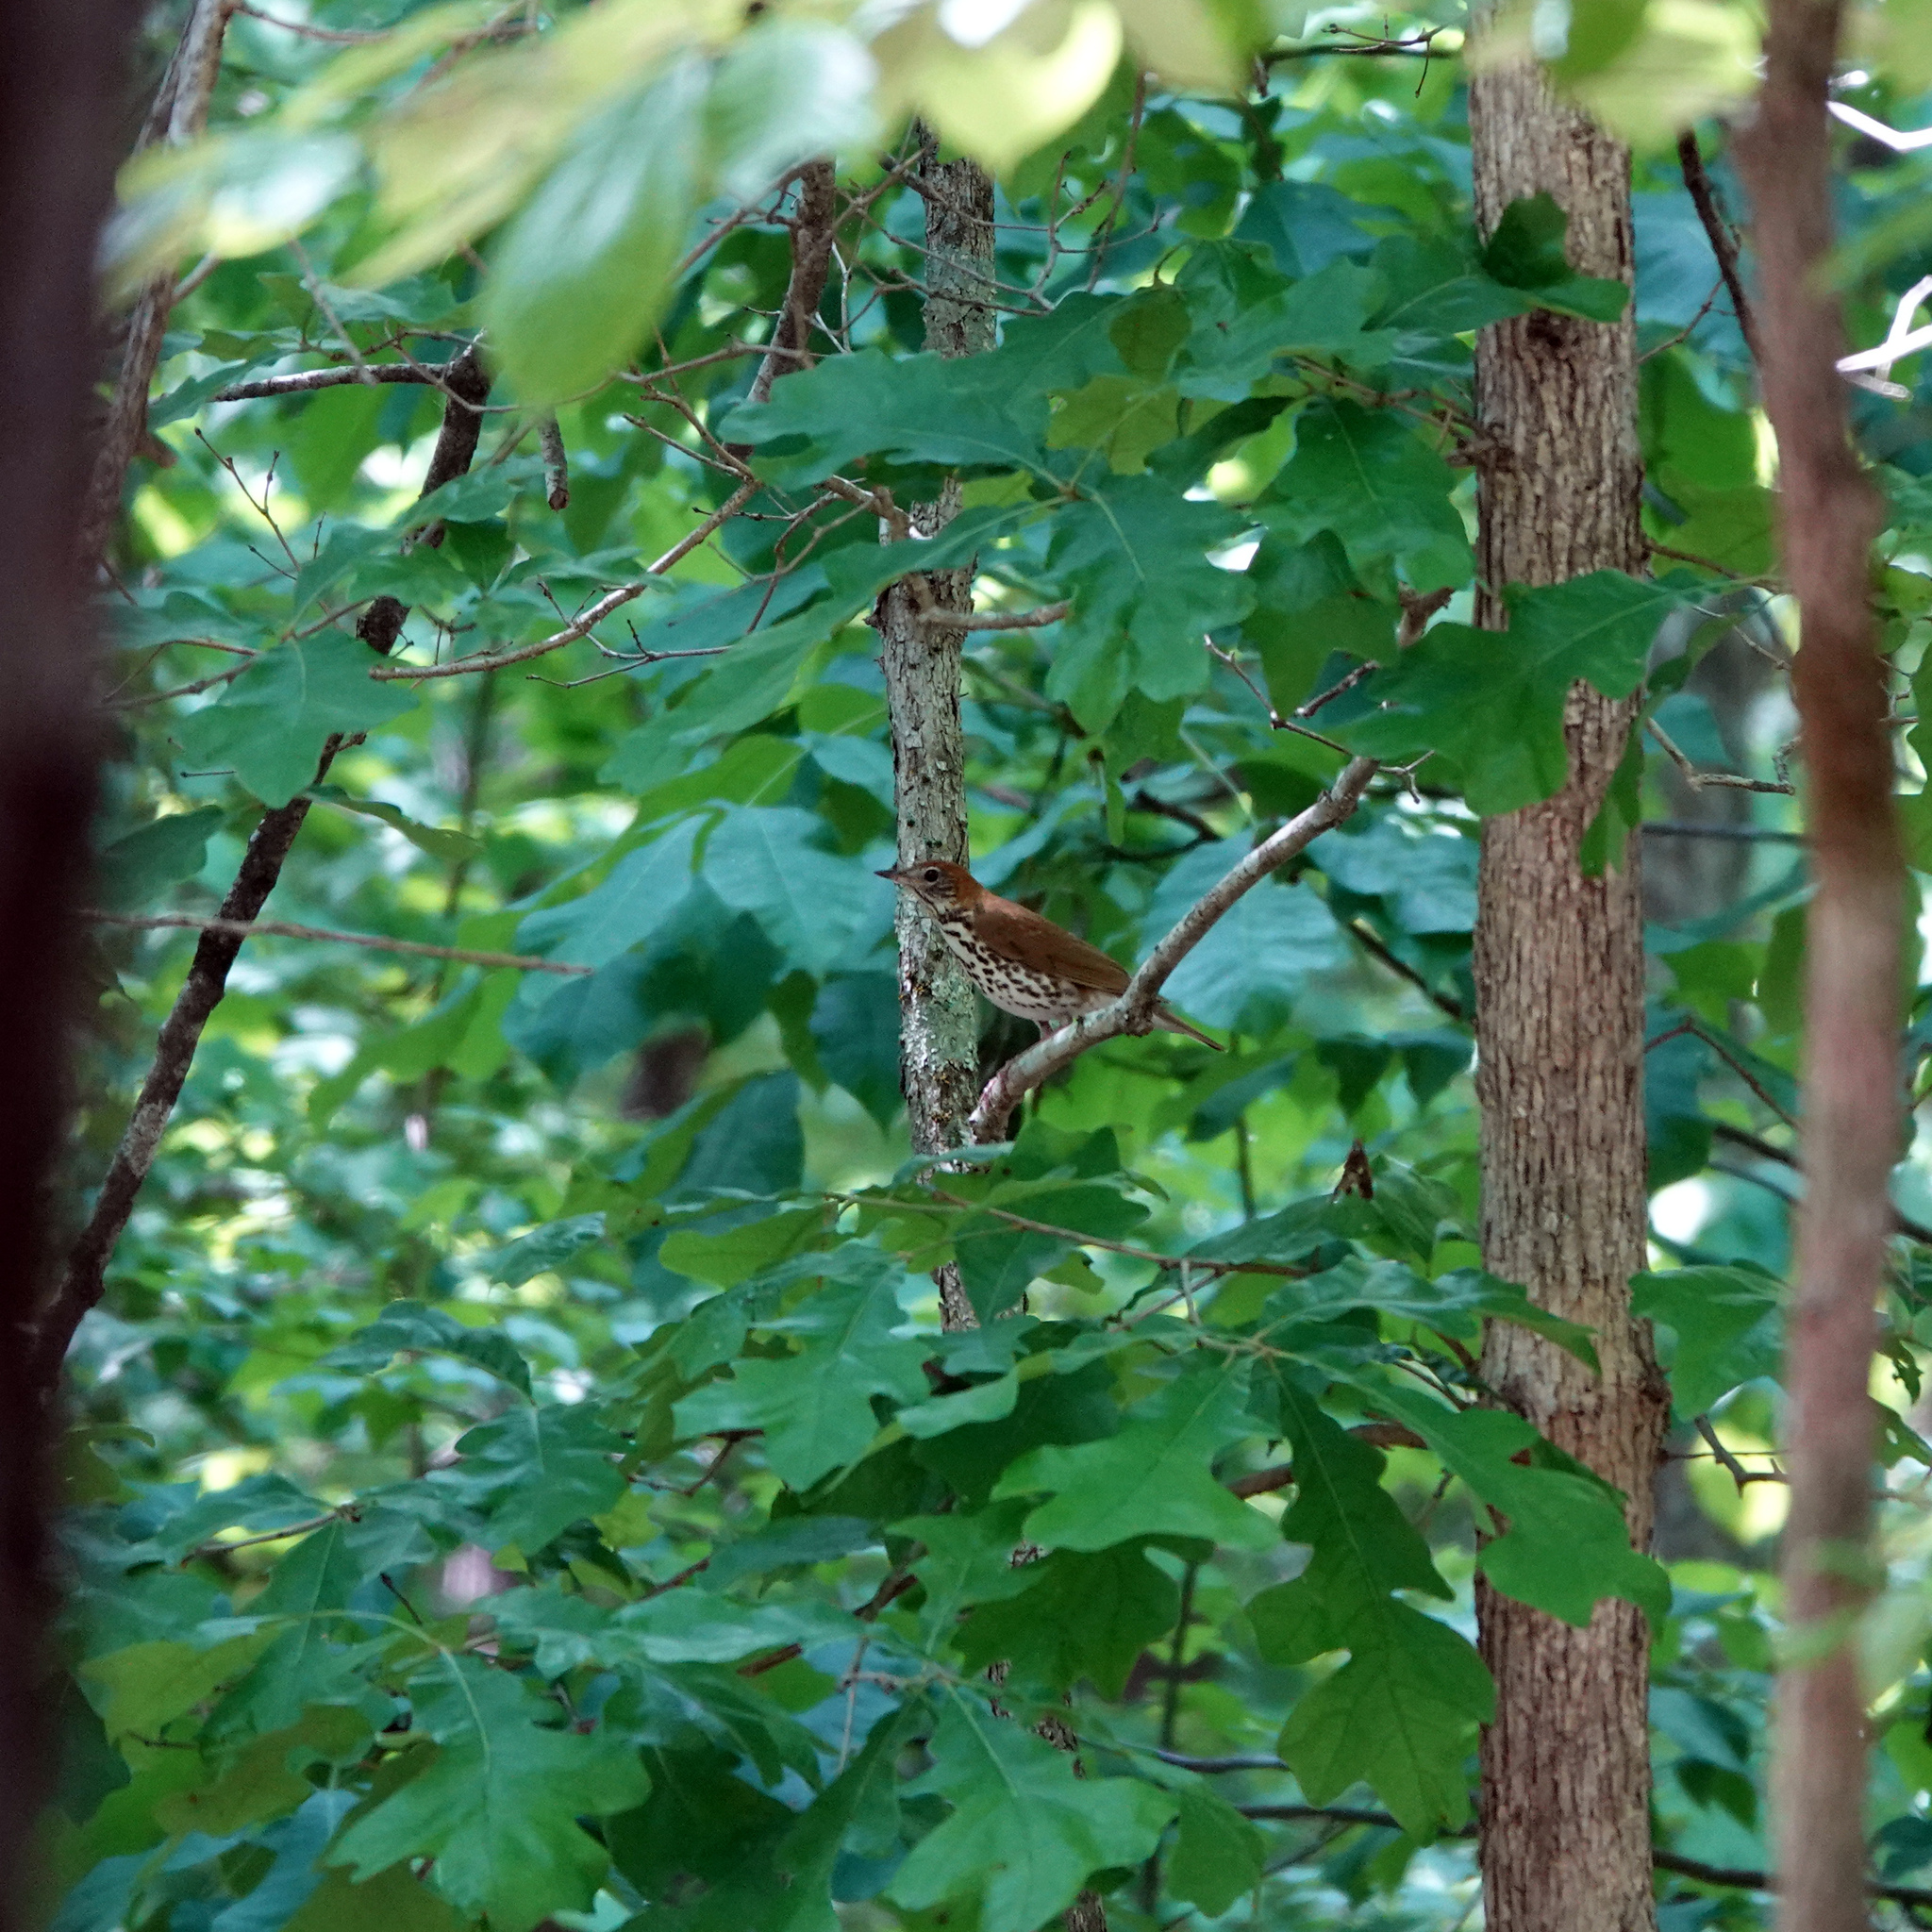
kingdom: Animalia
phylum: Chordata
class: Aves
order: Passeriformes
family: Turdidae
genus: Hylocichla
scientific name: Hylocichla mustelina
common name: Wood thrush
